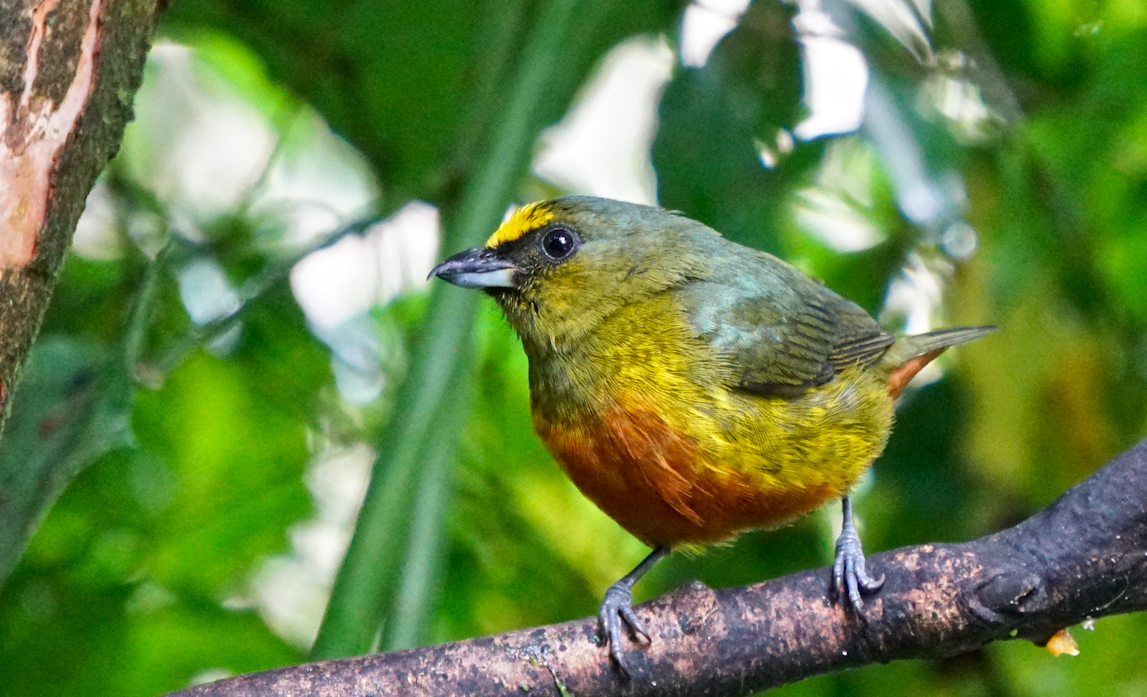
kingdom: Animalia
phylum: Chordata
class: Aves
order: Passeriformes
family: Fringillidae
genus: Euphonia
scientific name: Euphonia gouldi
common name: Olive-backed euphonia
